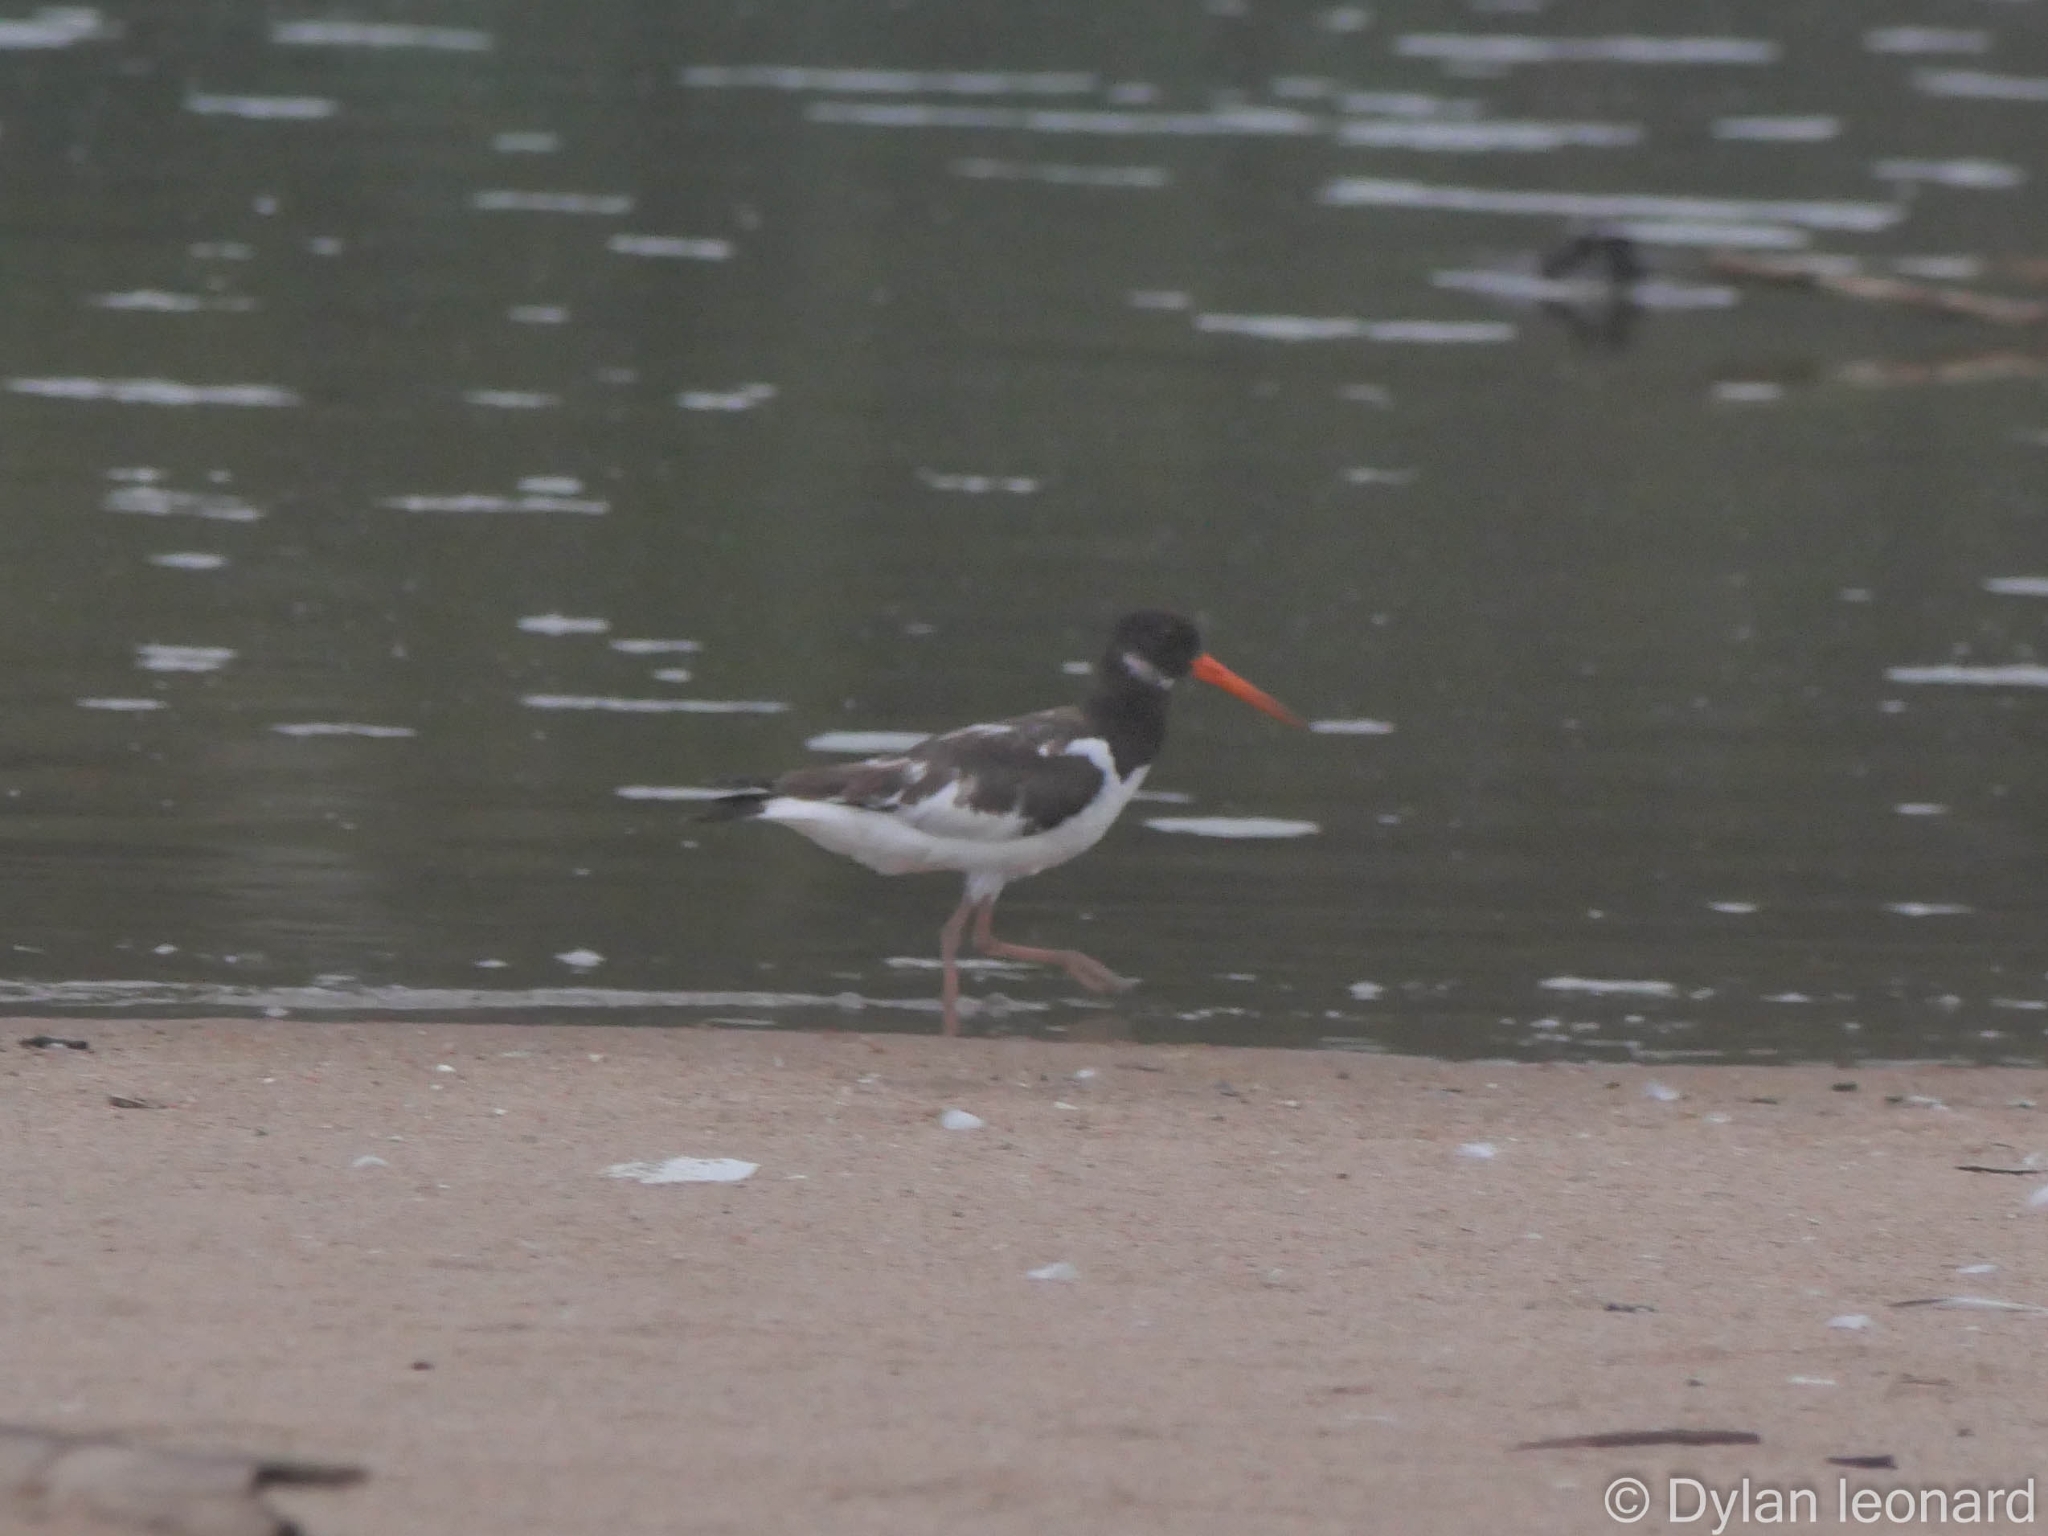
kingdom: Animalia
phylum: Chordata
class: Aves
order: Charadriiformes
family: Haematopodidae
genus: Haematopus
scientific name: Haematopus ostralegus
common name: Eurasian oystercatcher
